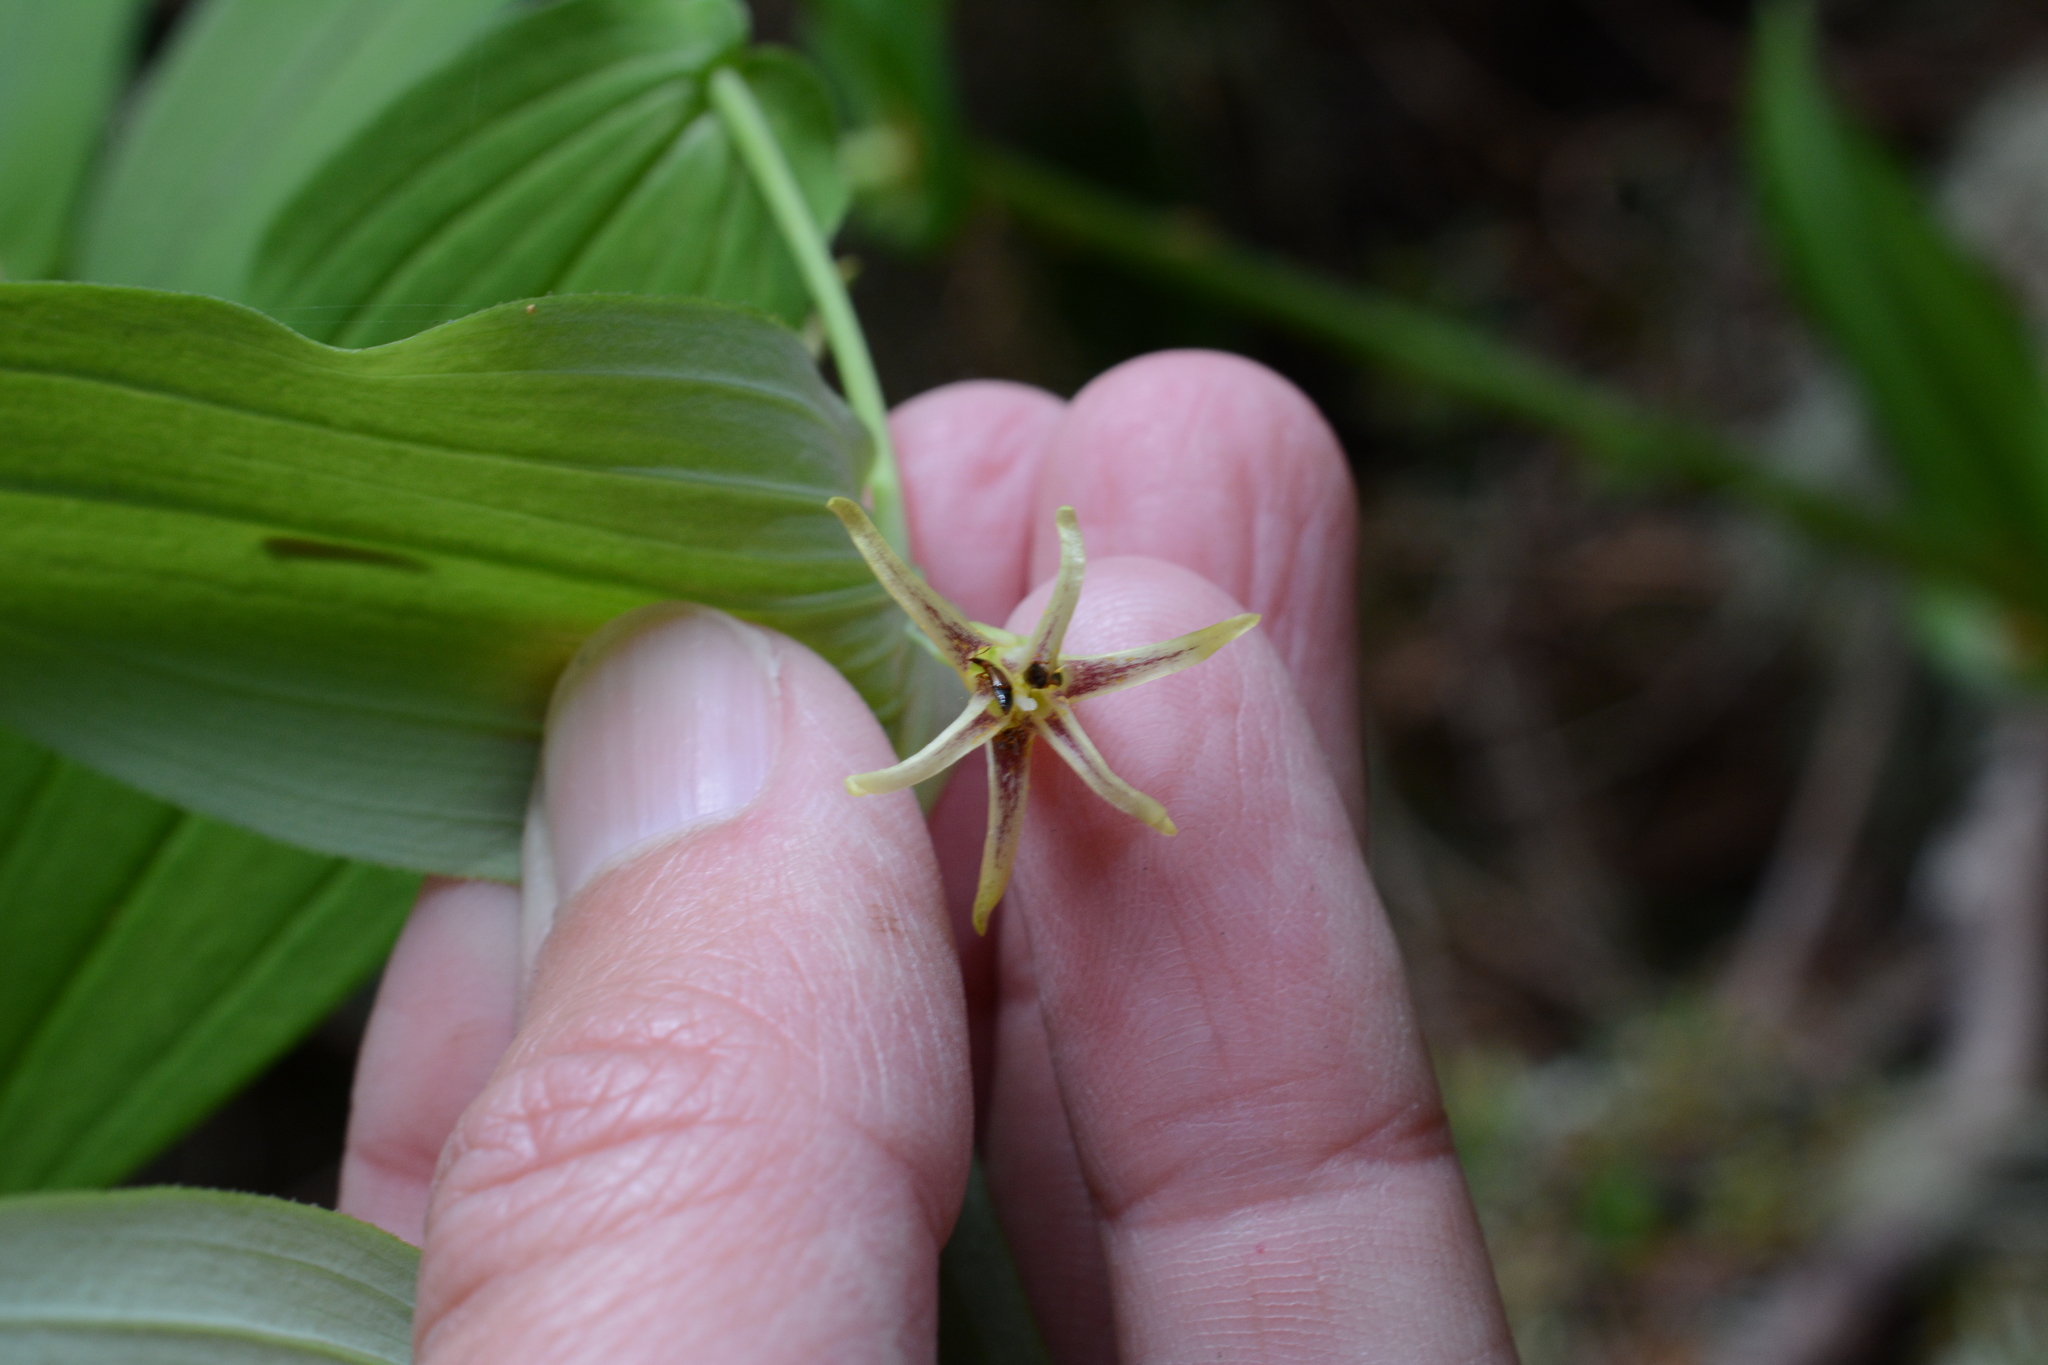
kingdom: Plantae
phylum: Tracheophyta
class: Liliopsida
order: Liliales
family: Liliaceae
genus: Streptopus
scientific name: Streptopus amplexifolius
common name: Clasp twisted stalk
